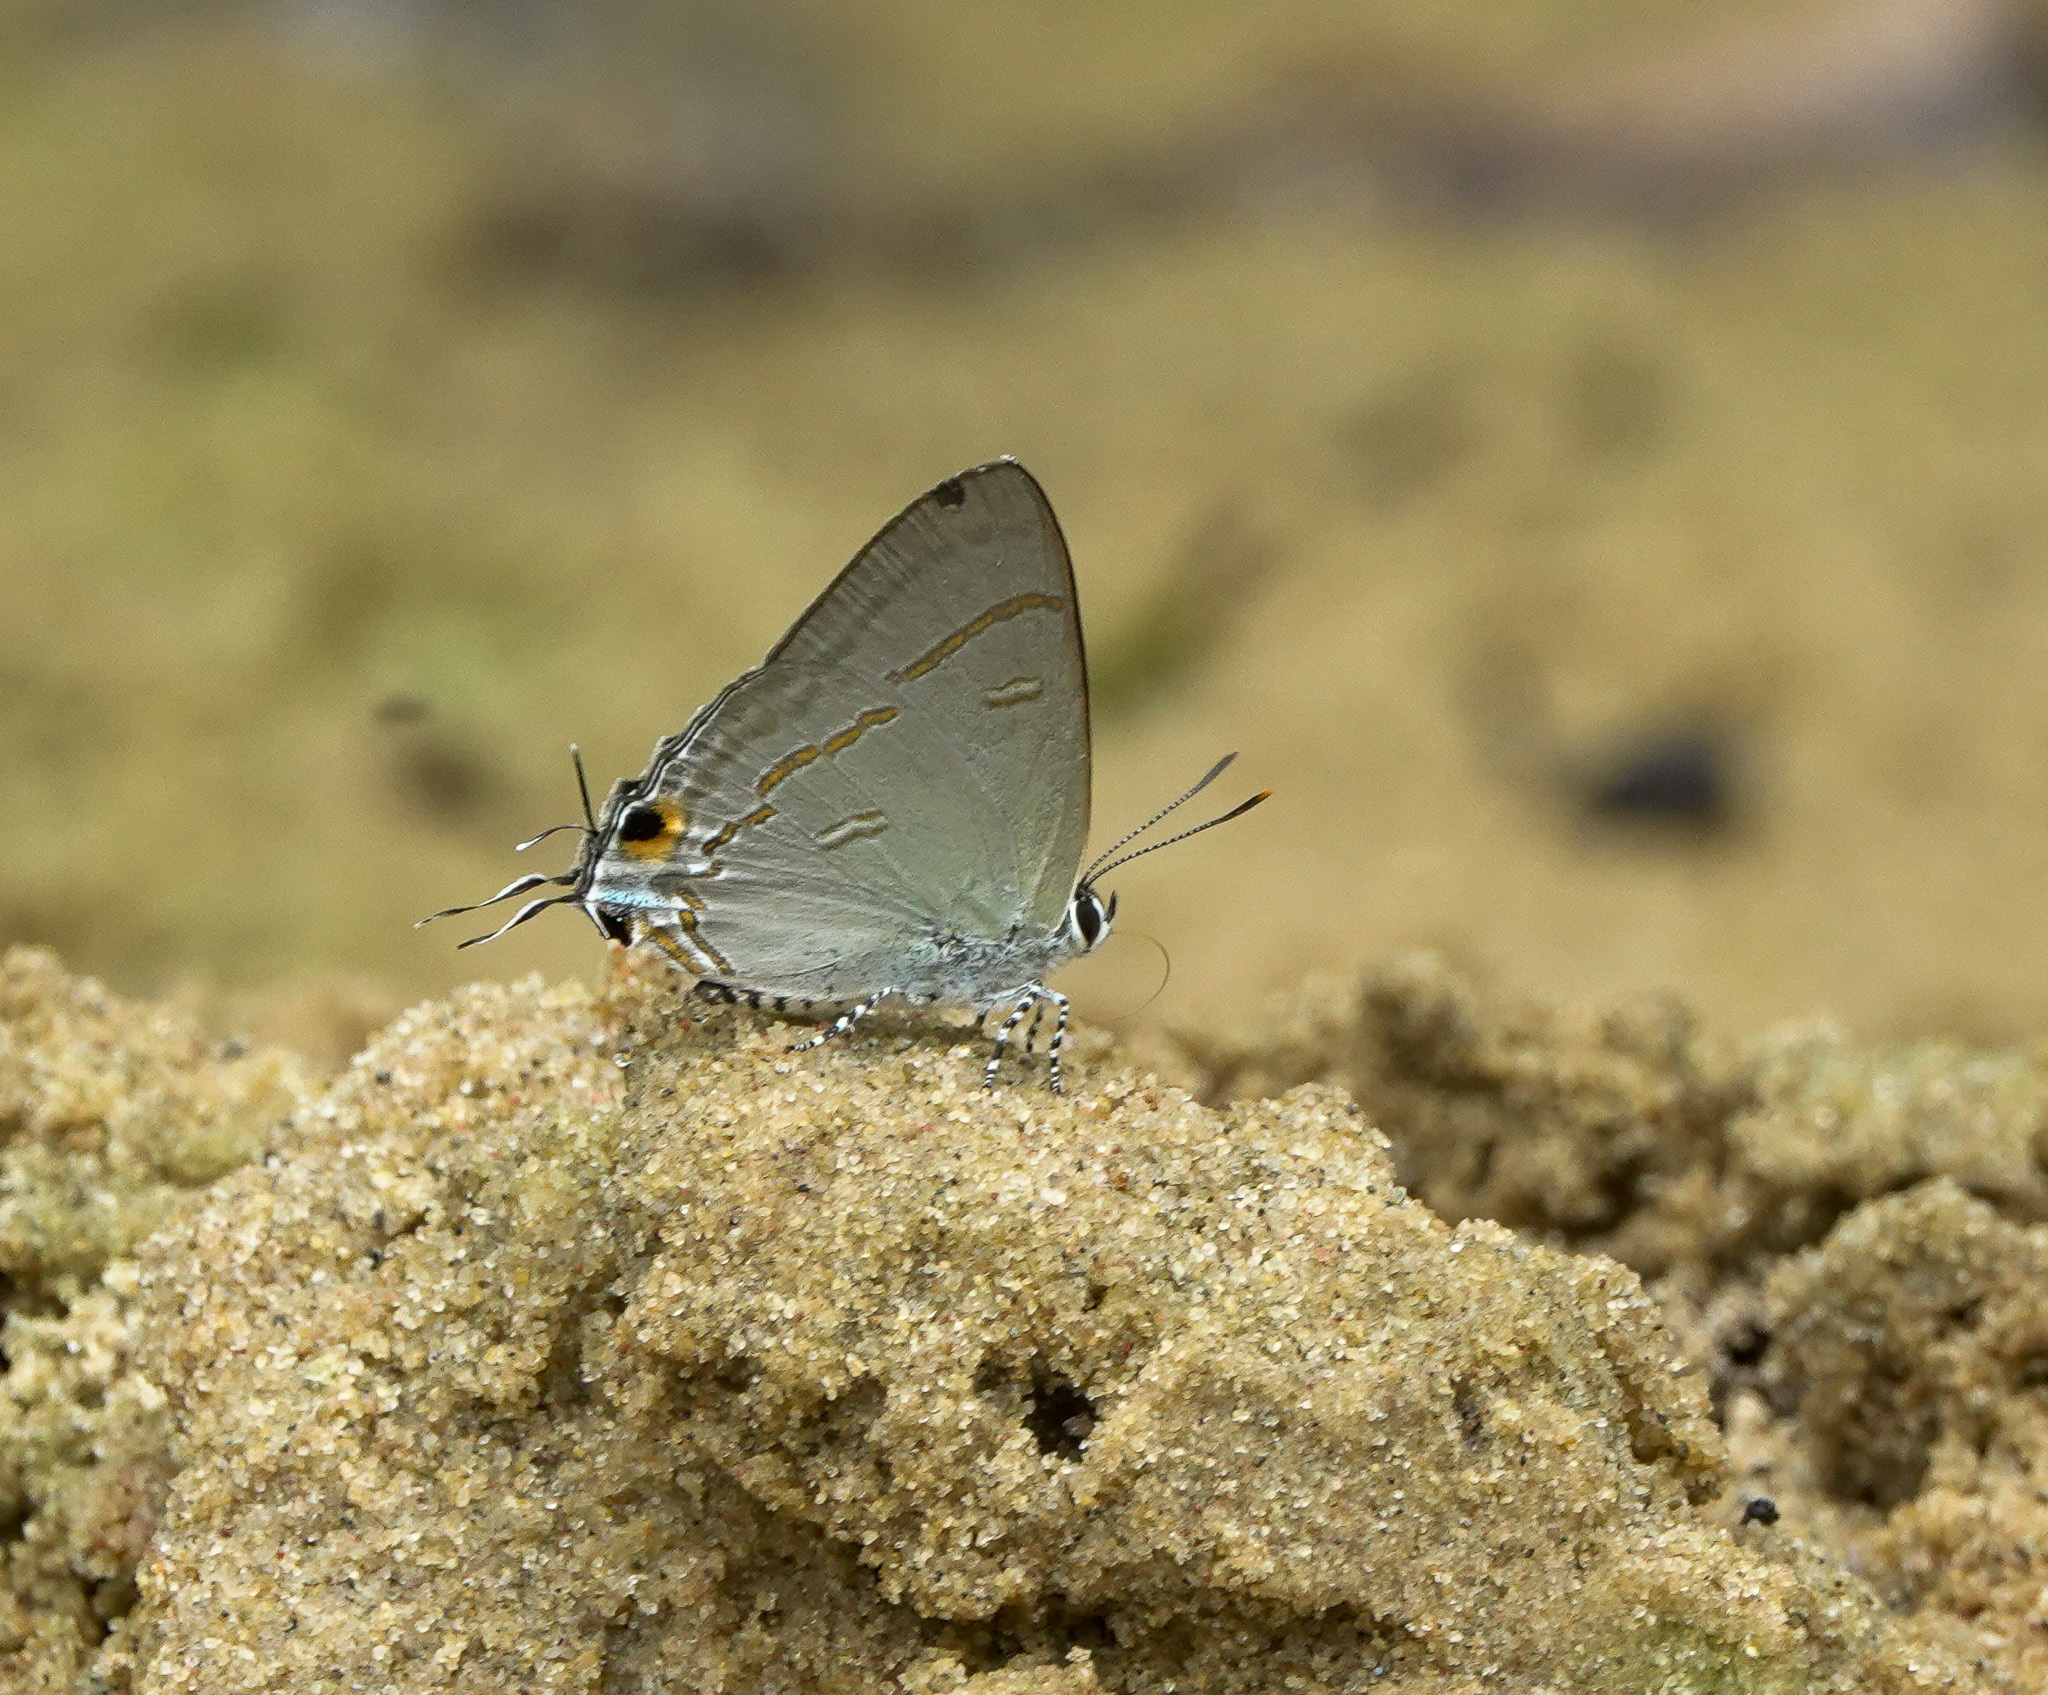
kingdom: Animalia
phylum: Arthropoda
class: Insecta
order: Lepidoptera
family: Lycaenidae
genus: Hypolycaena
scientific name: Hypolycaena erylus
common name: Common tit
